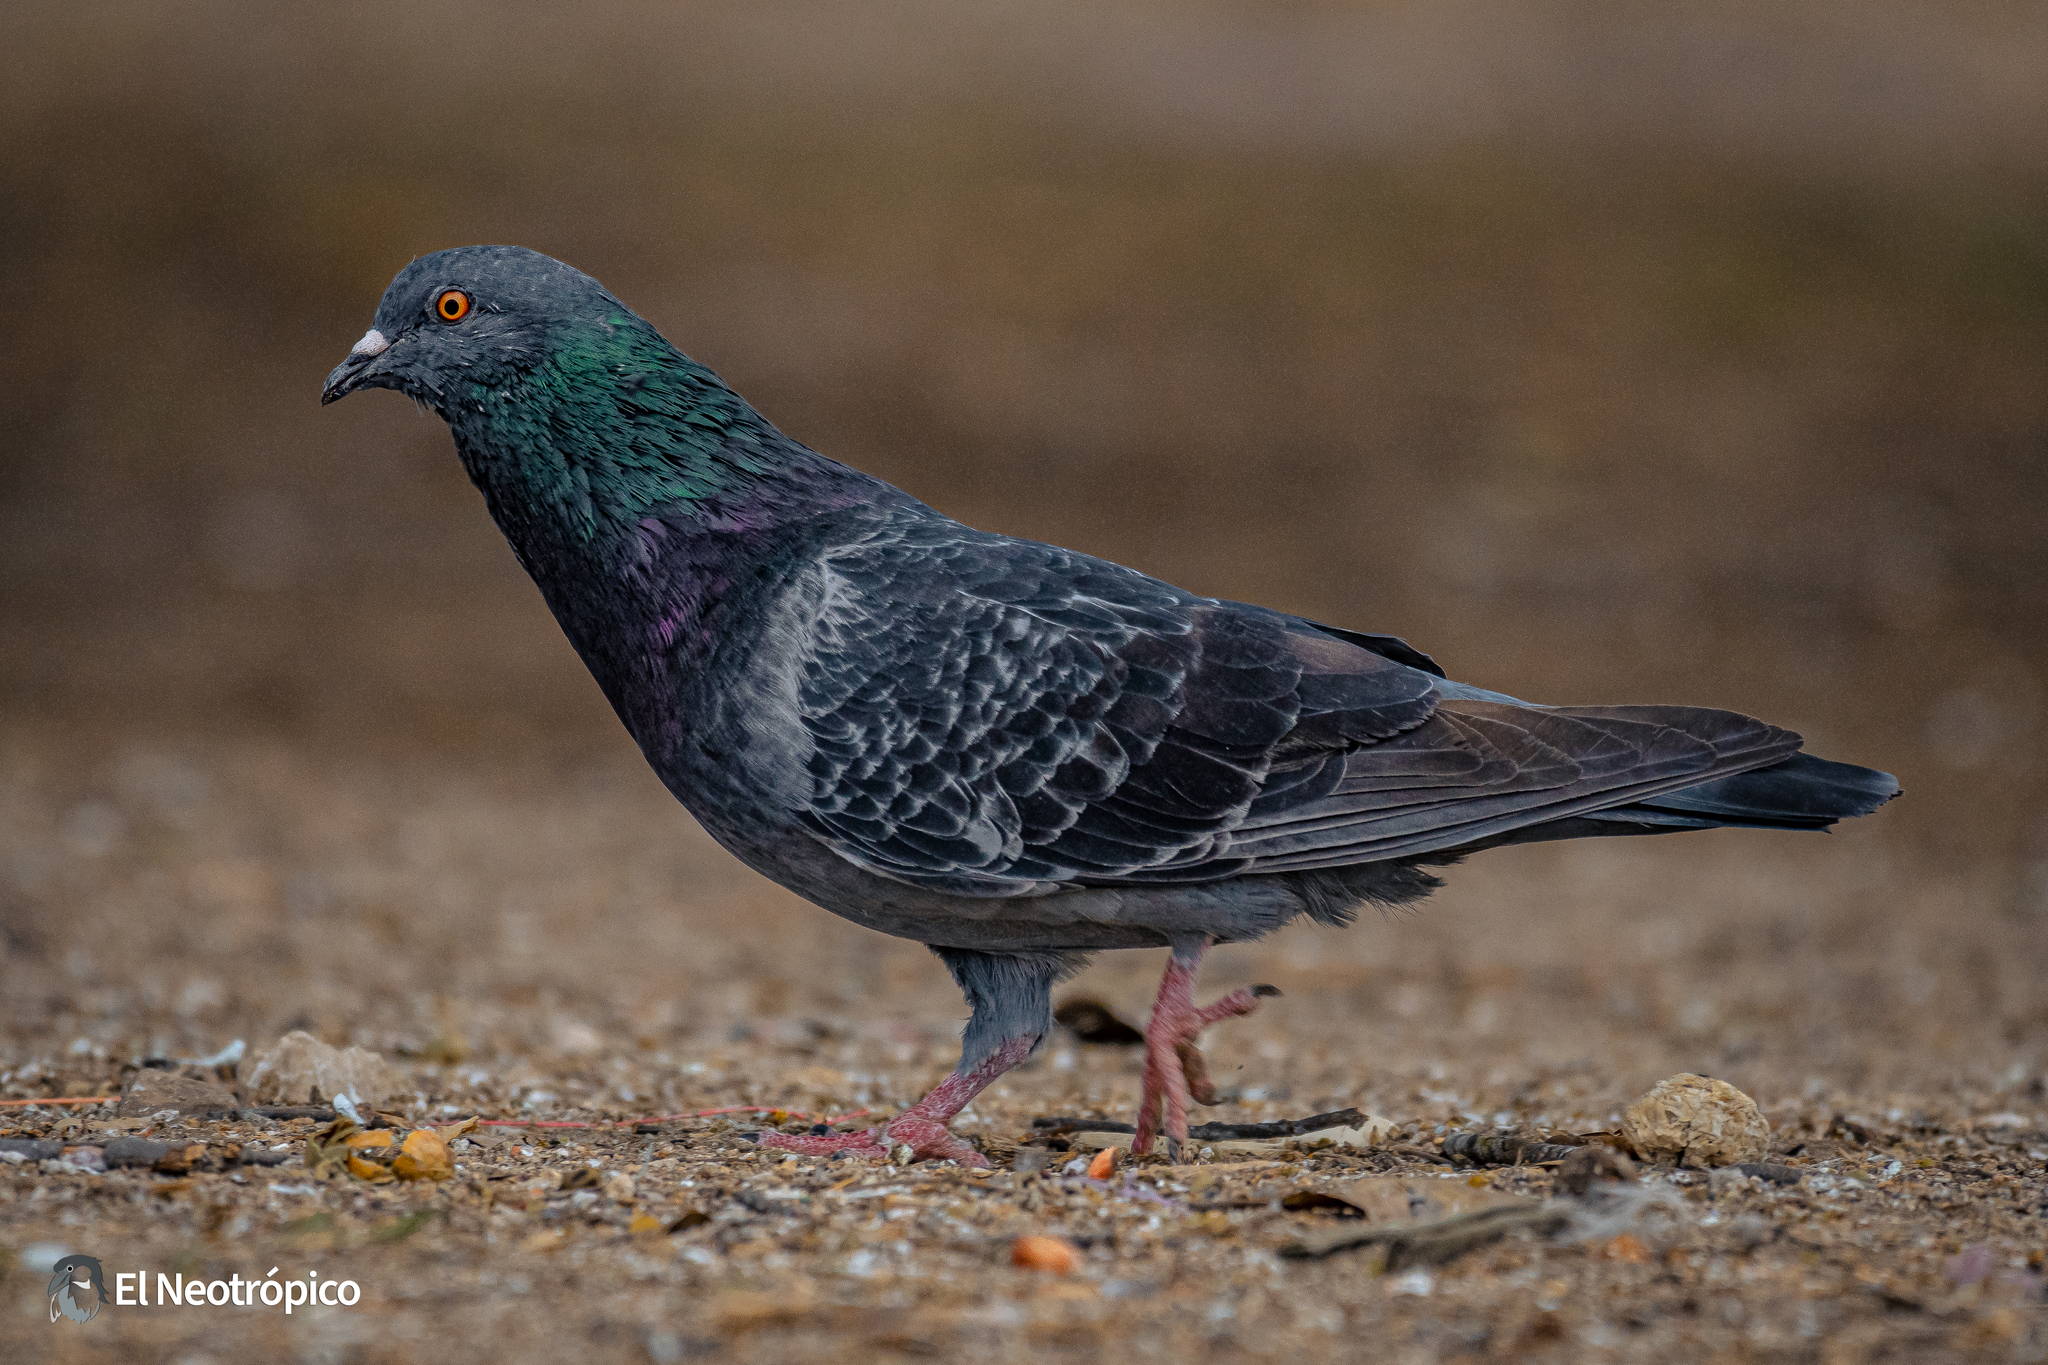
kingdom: Animalia
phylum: Chordata
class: Aves
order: Columbiformes
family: Columbidae
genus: Columba
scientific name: Columba livia
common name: Rock pigeon
